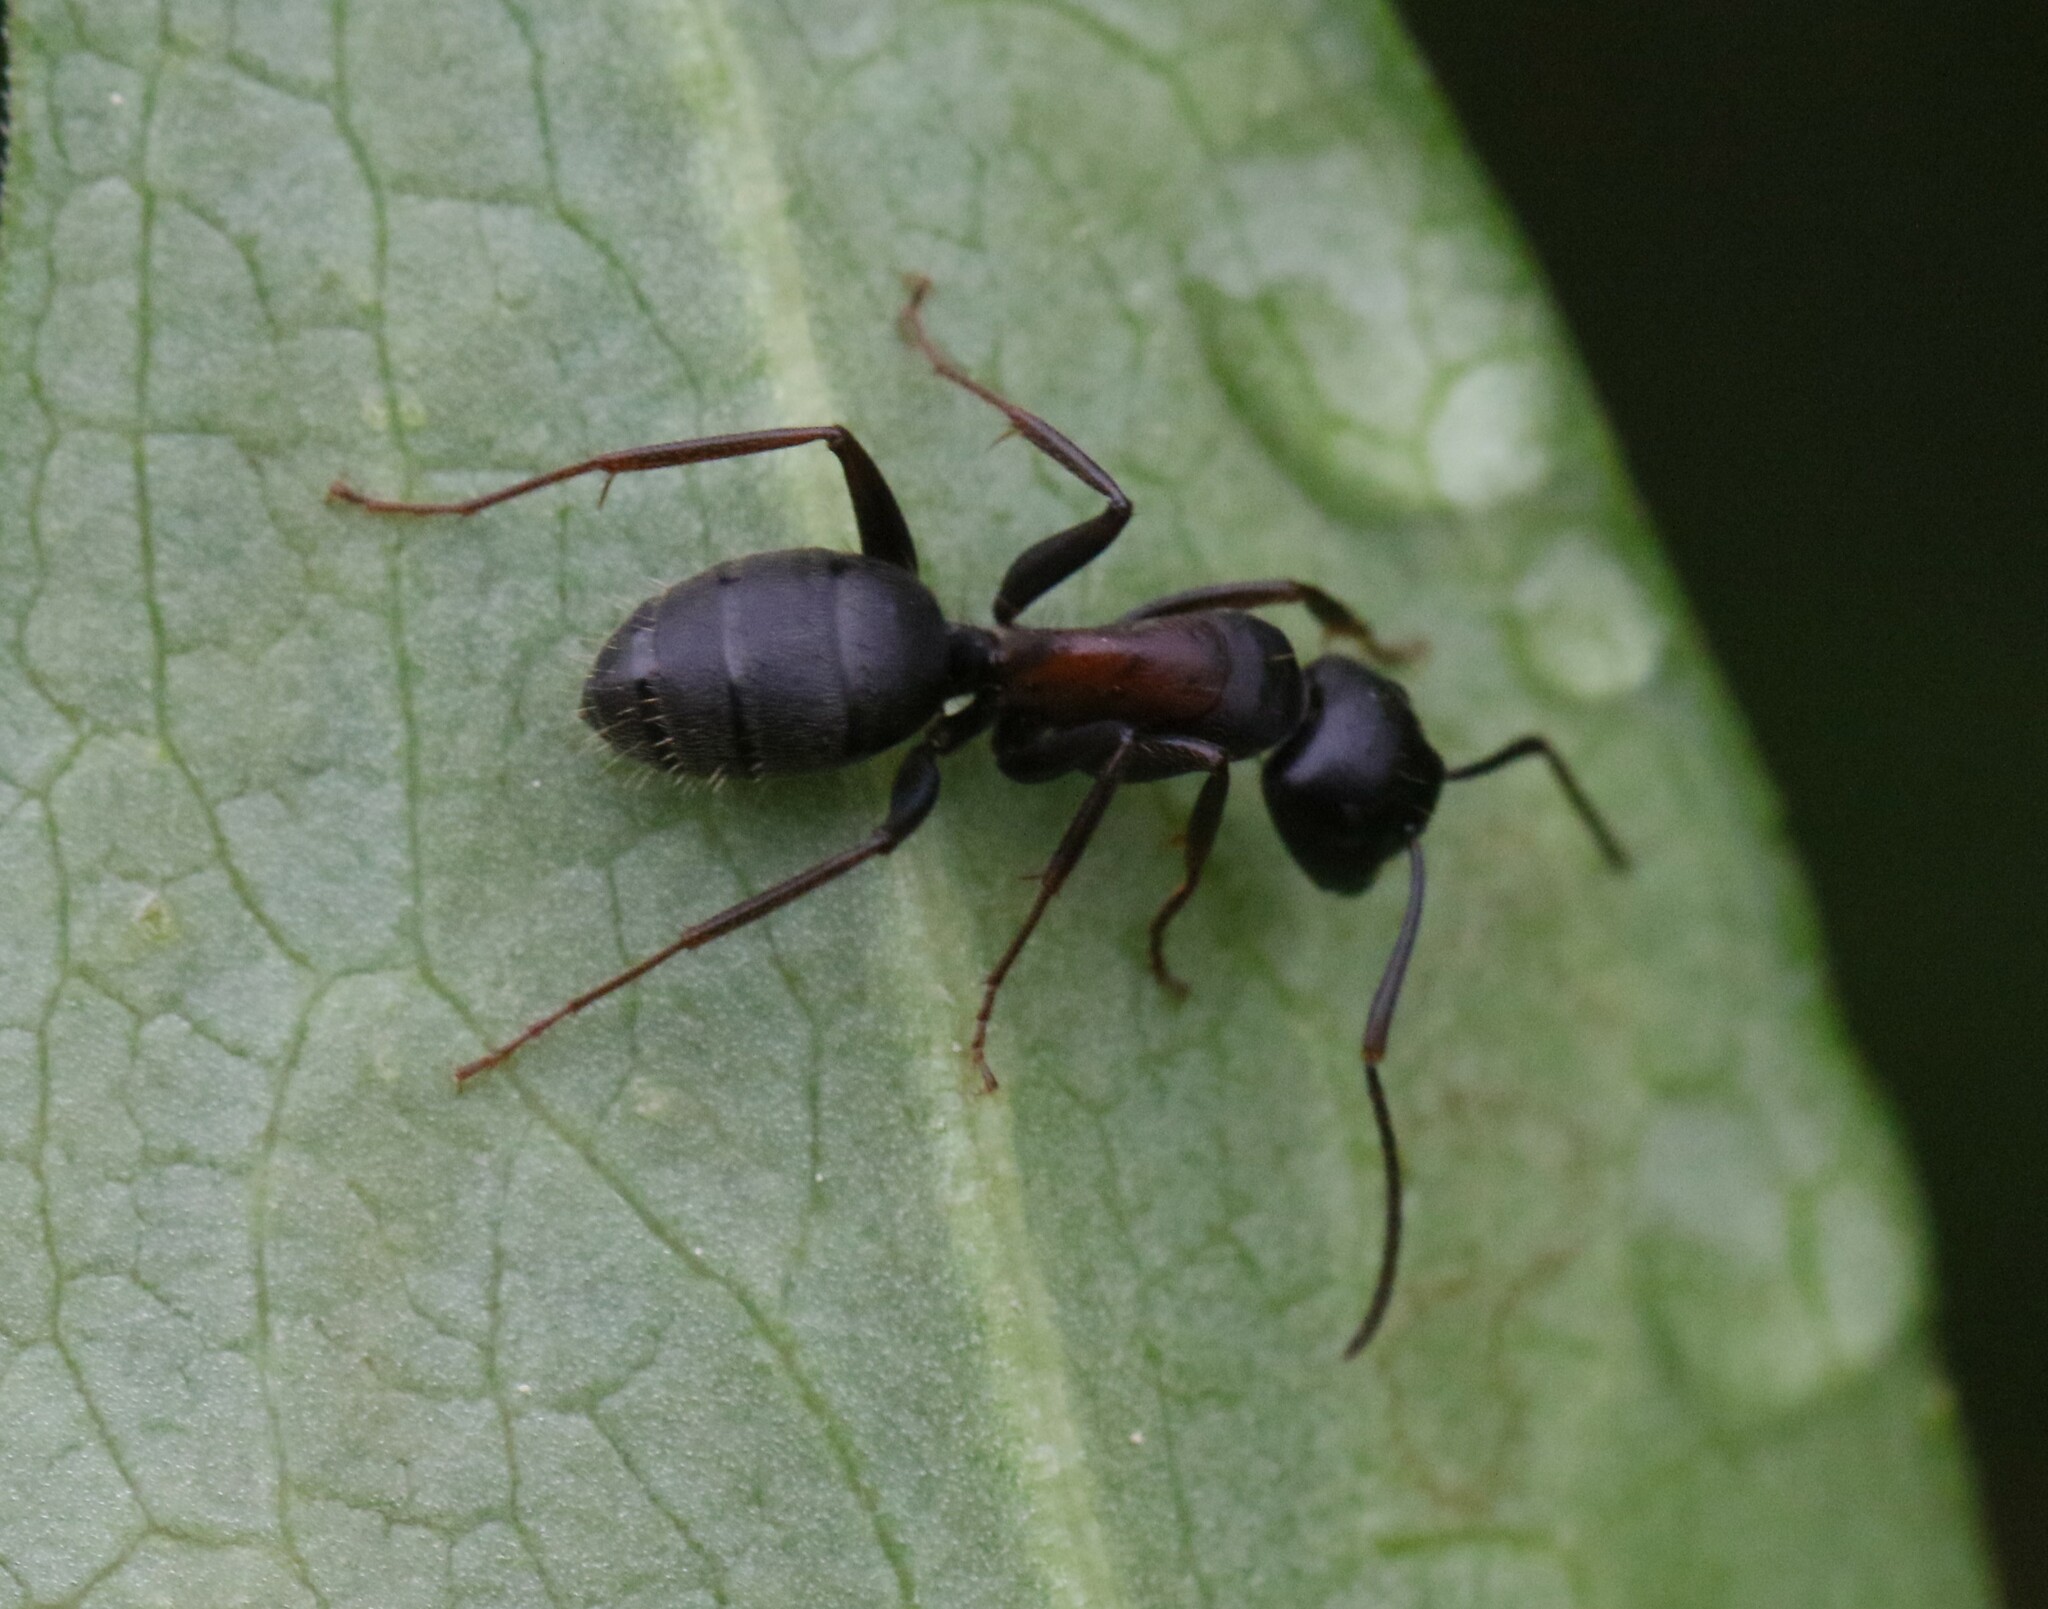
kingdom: Animalia
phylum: Arthropoda
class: Insecta
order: Hymenoptera
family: Formicidae
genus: Camponotus
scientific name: Camponotus herculeanus
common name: Hercules ant
